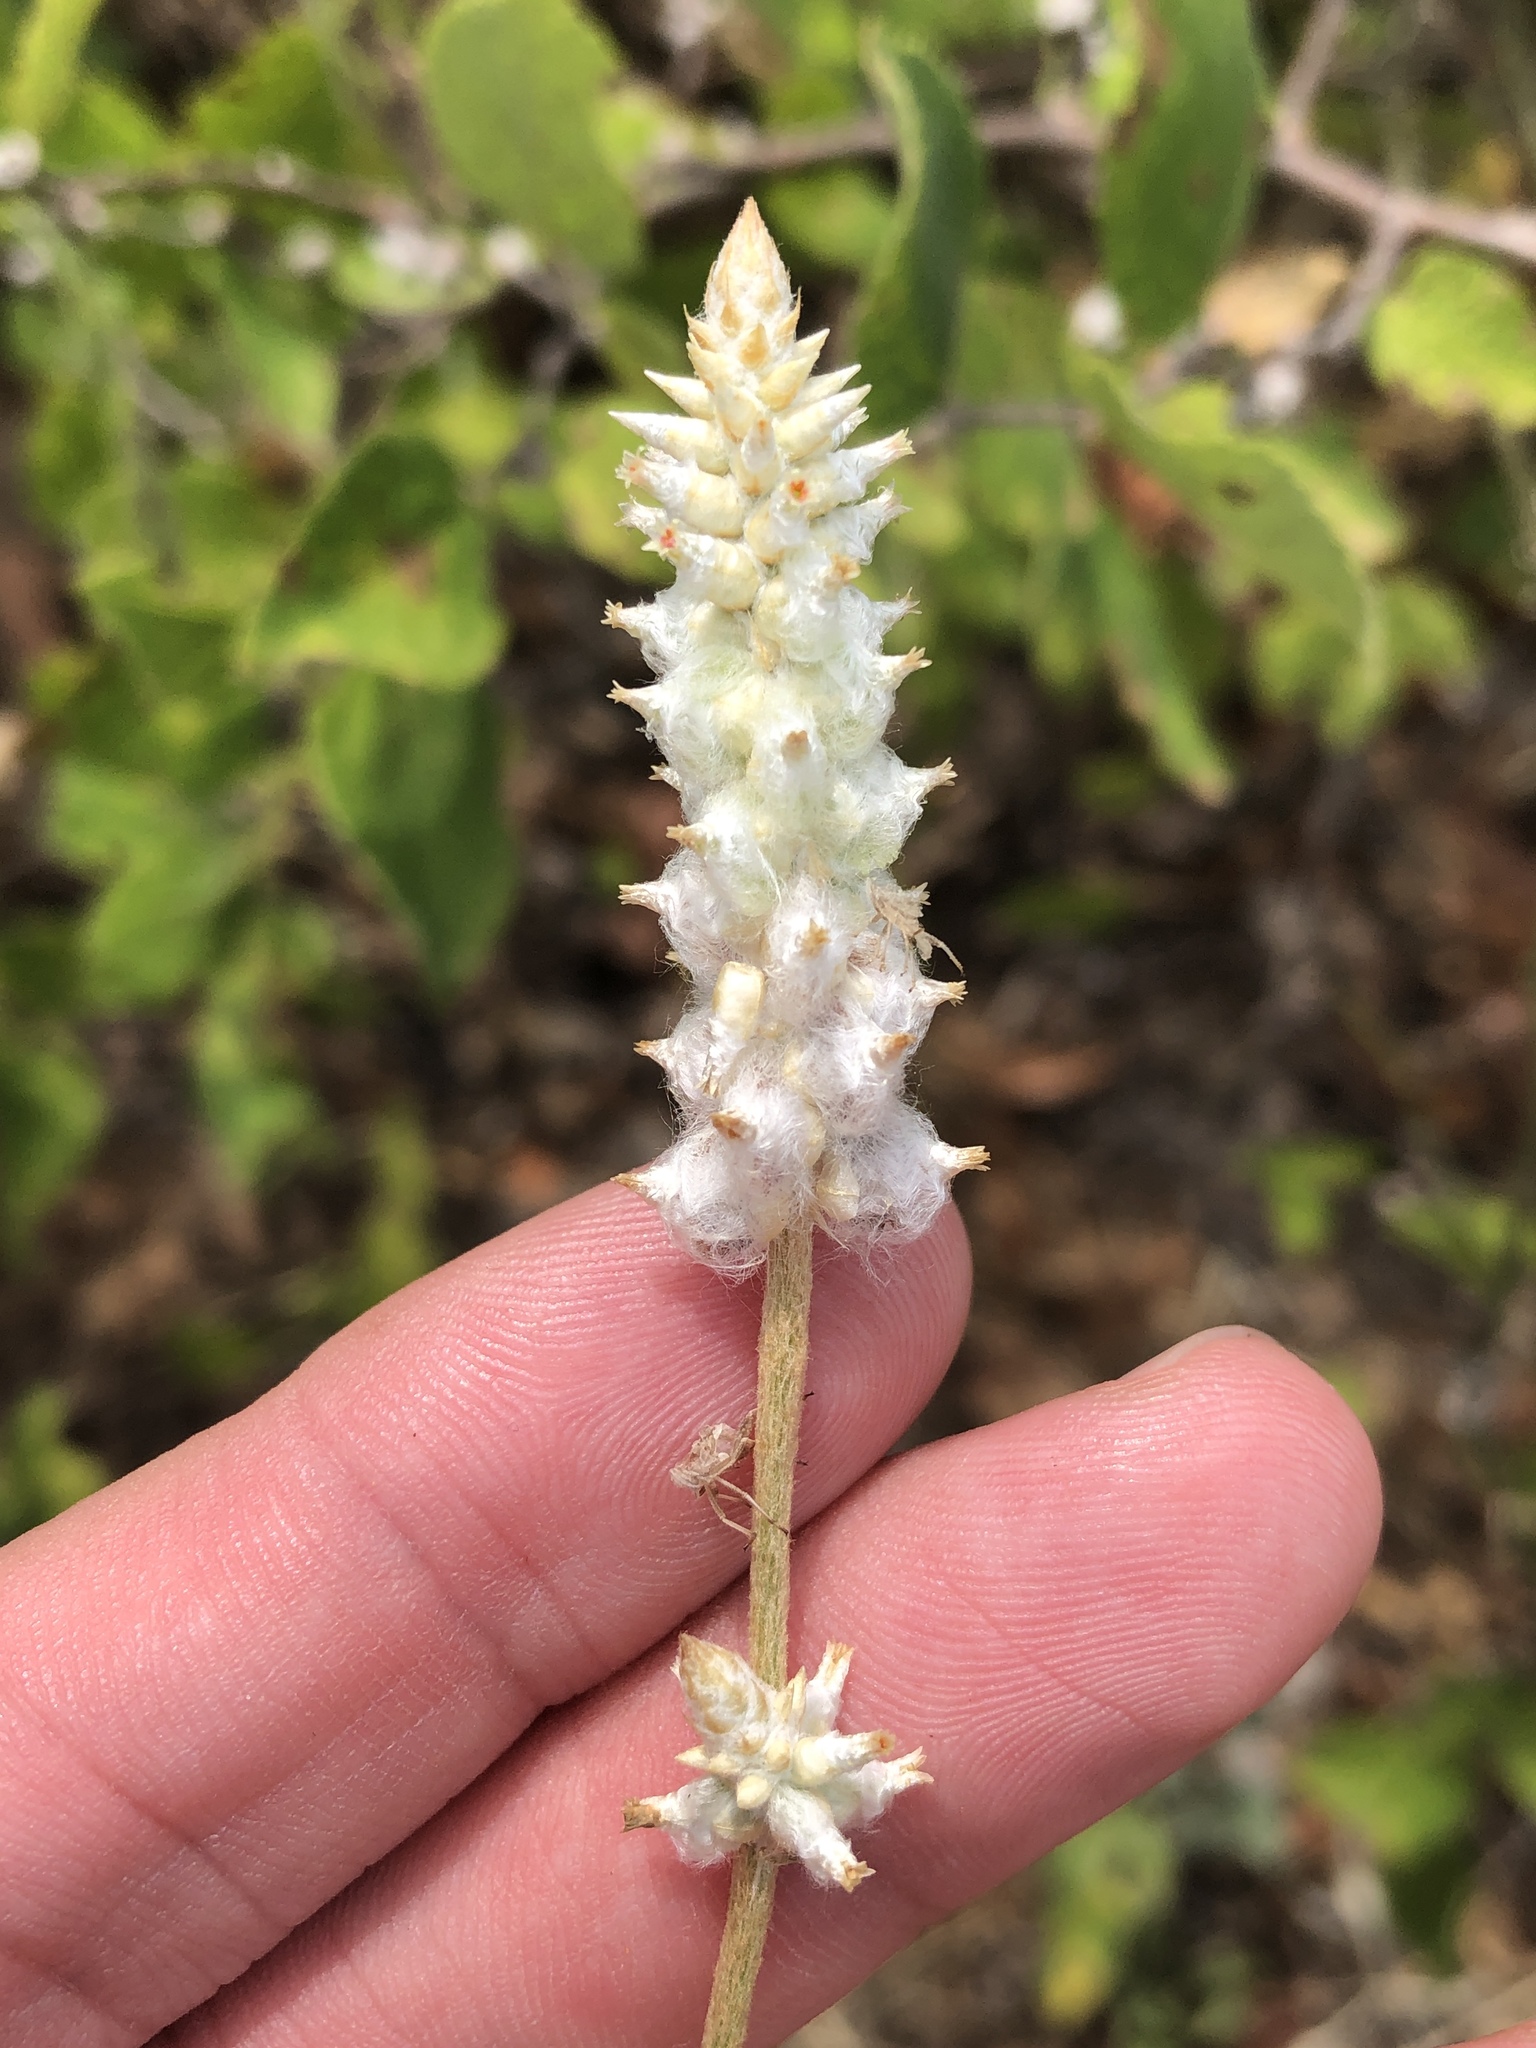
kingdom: Plantae
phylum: Tracheophyta
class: Magnoliopsida
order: Caryophyllales
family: Amaranthaceae
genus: Froelichia
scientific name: Froelichia floridana
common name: Florida snake-cotton
